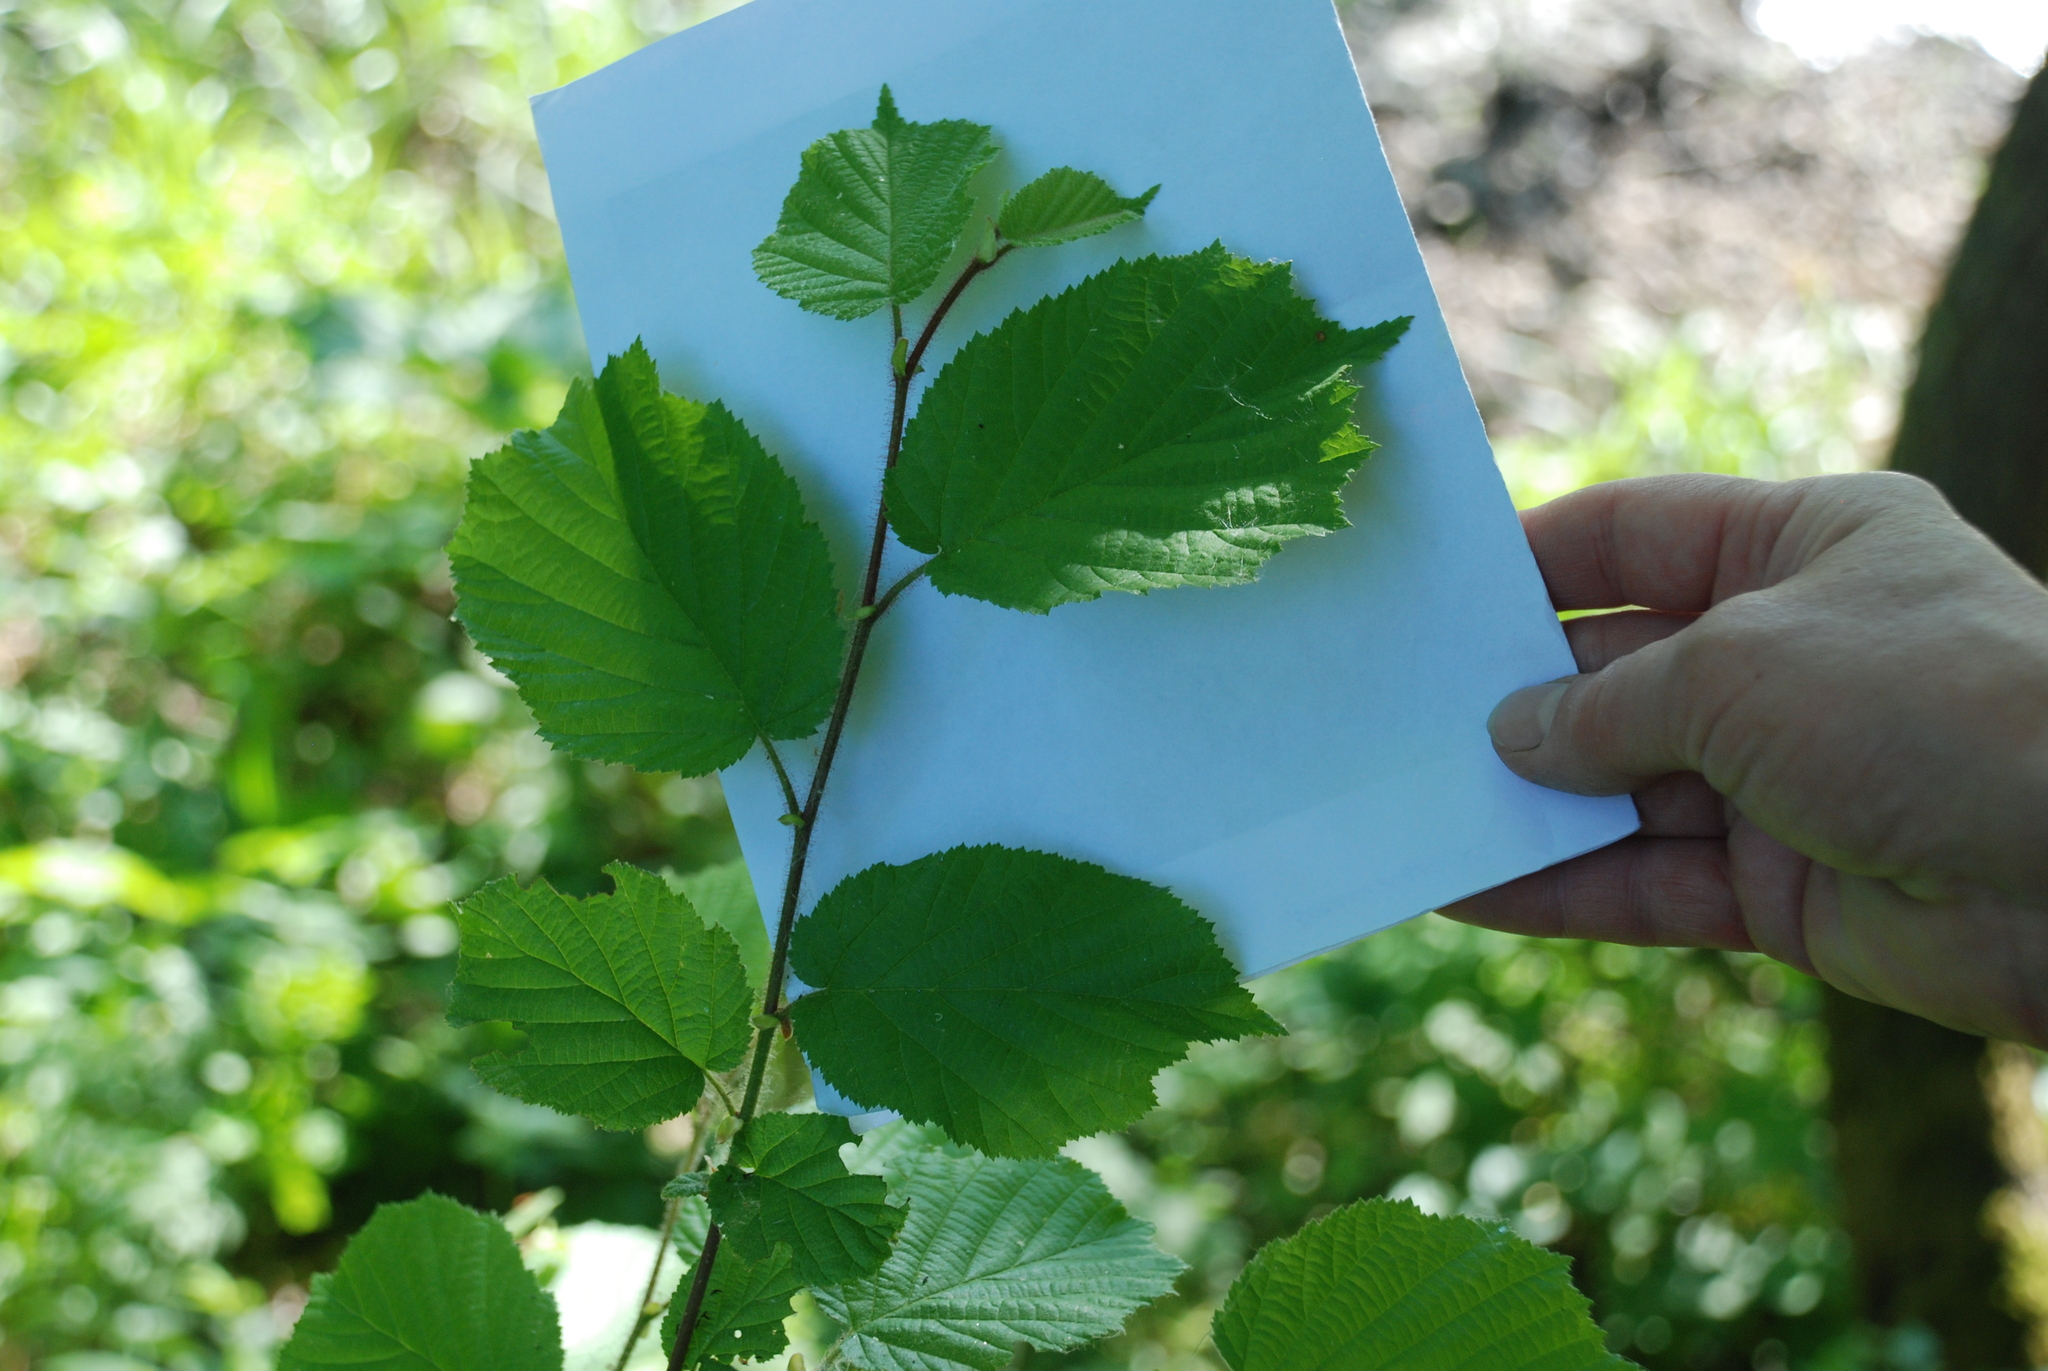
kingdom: Plantae
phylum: Tracheophyta
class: Magnoliopsida
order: Fagales
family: Betulaceae
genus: Corylus
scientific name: Corylus avellana
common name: European hazel
